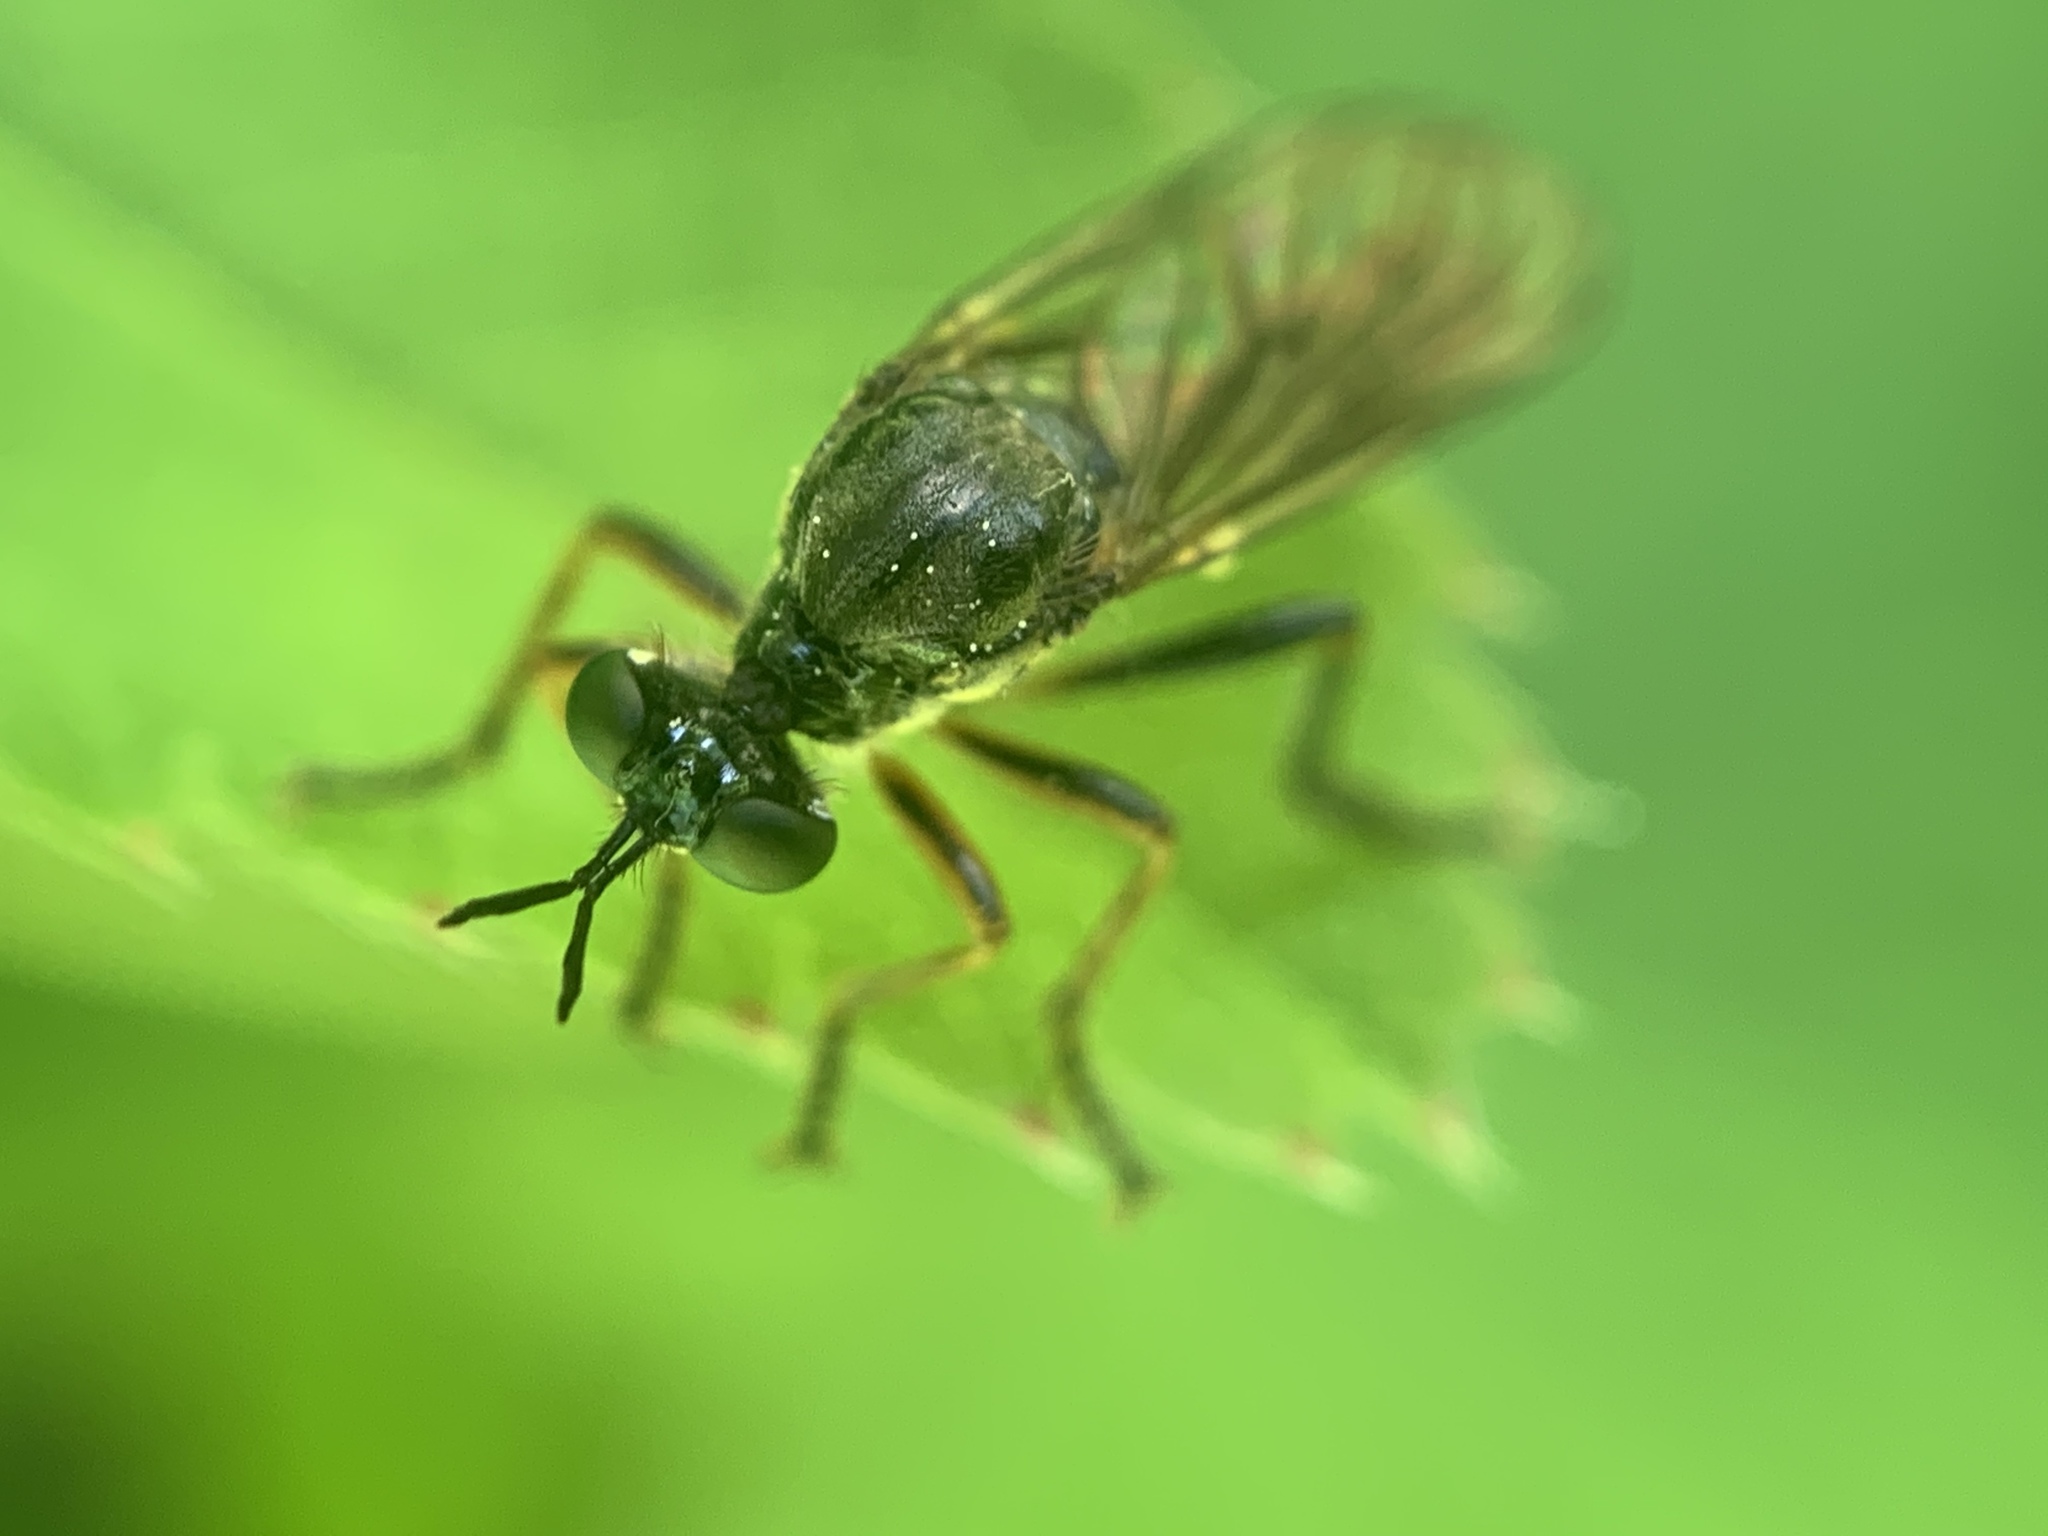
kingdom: Animalia
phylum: Arthropoda
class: Insecta
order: Diptera
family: Asilidae
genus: Dioctria
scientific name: Dioctria hyalipennis
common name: Stripe-legged robberfly
